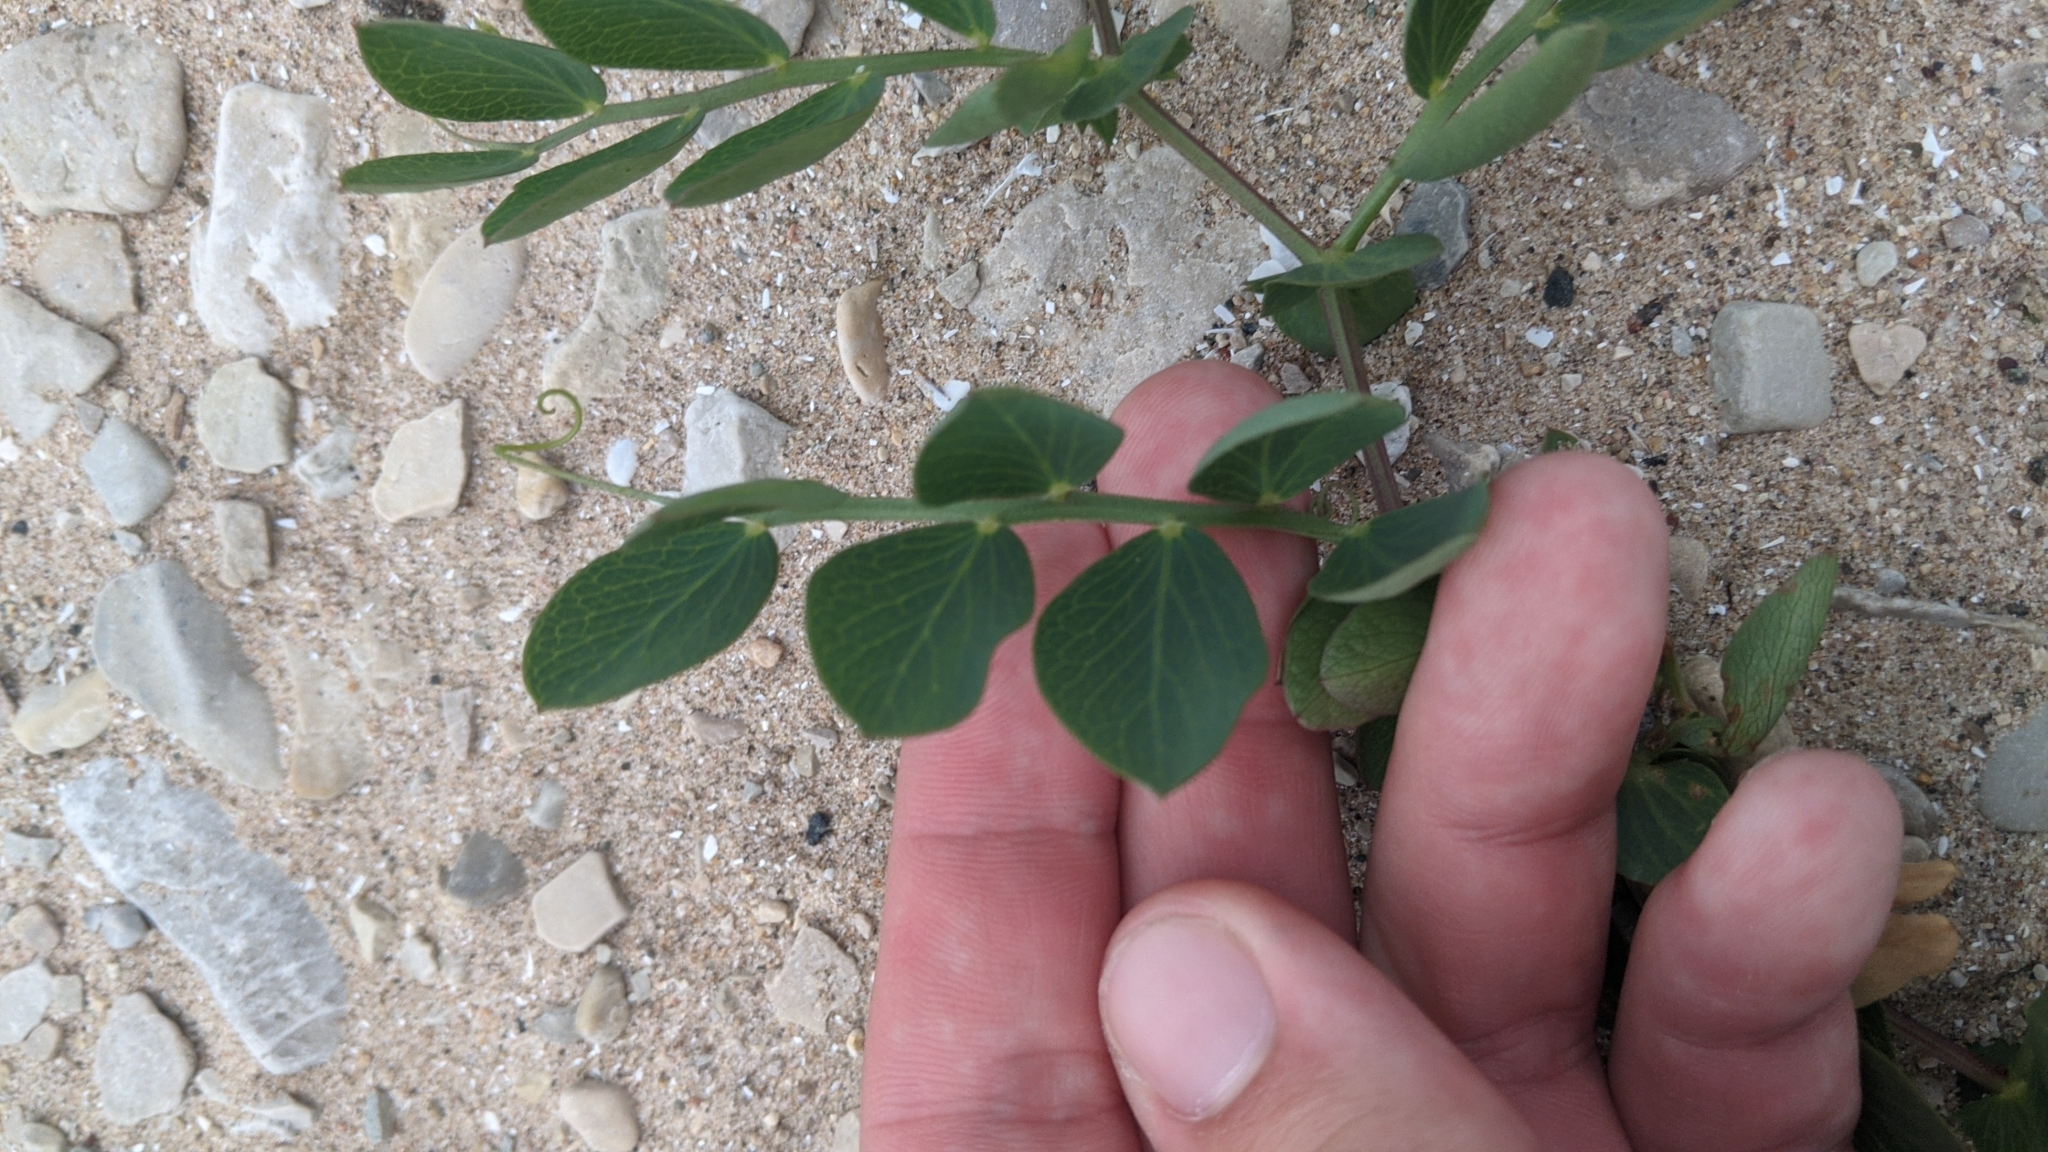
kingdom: Plantae
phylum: Tracheophyta
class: Magnoliopsida
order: Fabales
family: Fabaceae
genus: Lathyrus
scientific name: Lathyrus japonicus
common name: Sea pea
